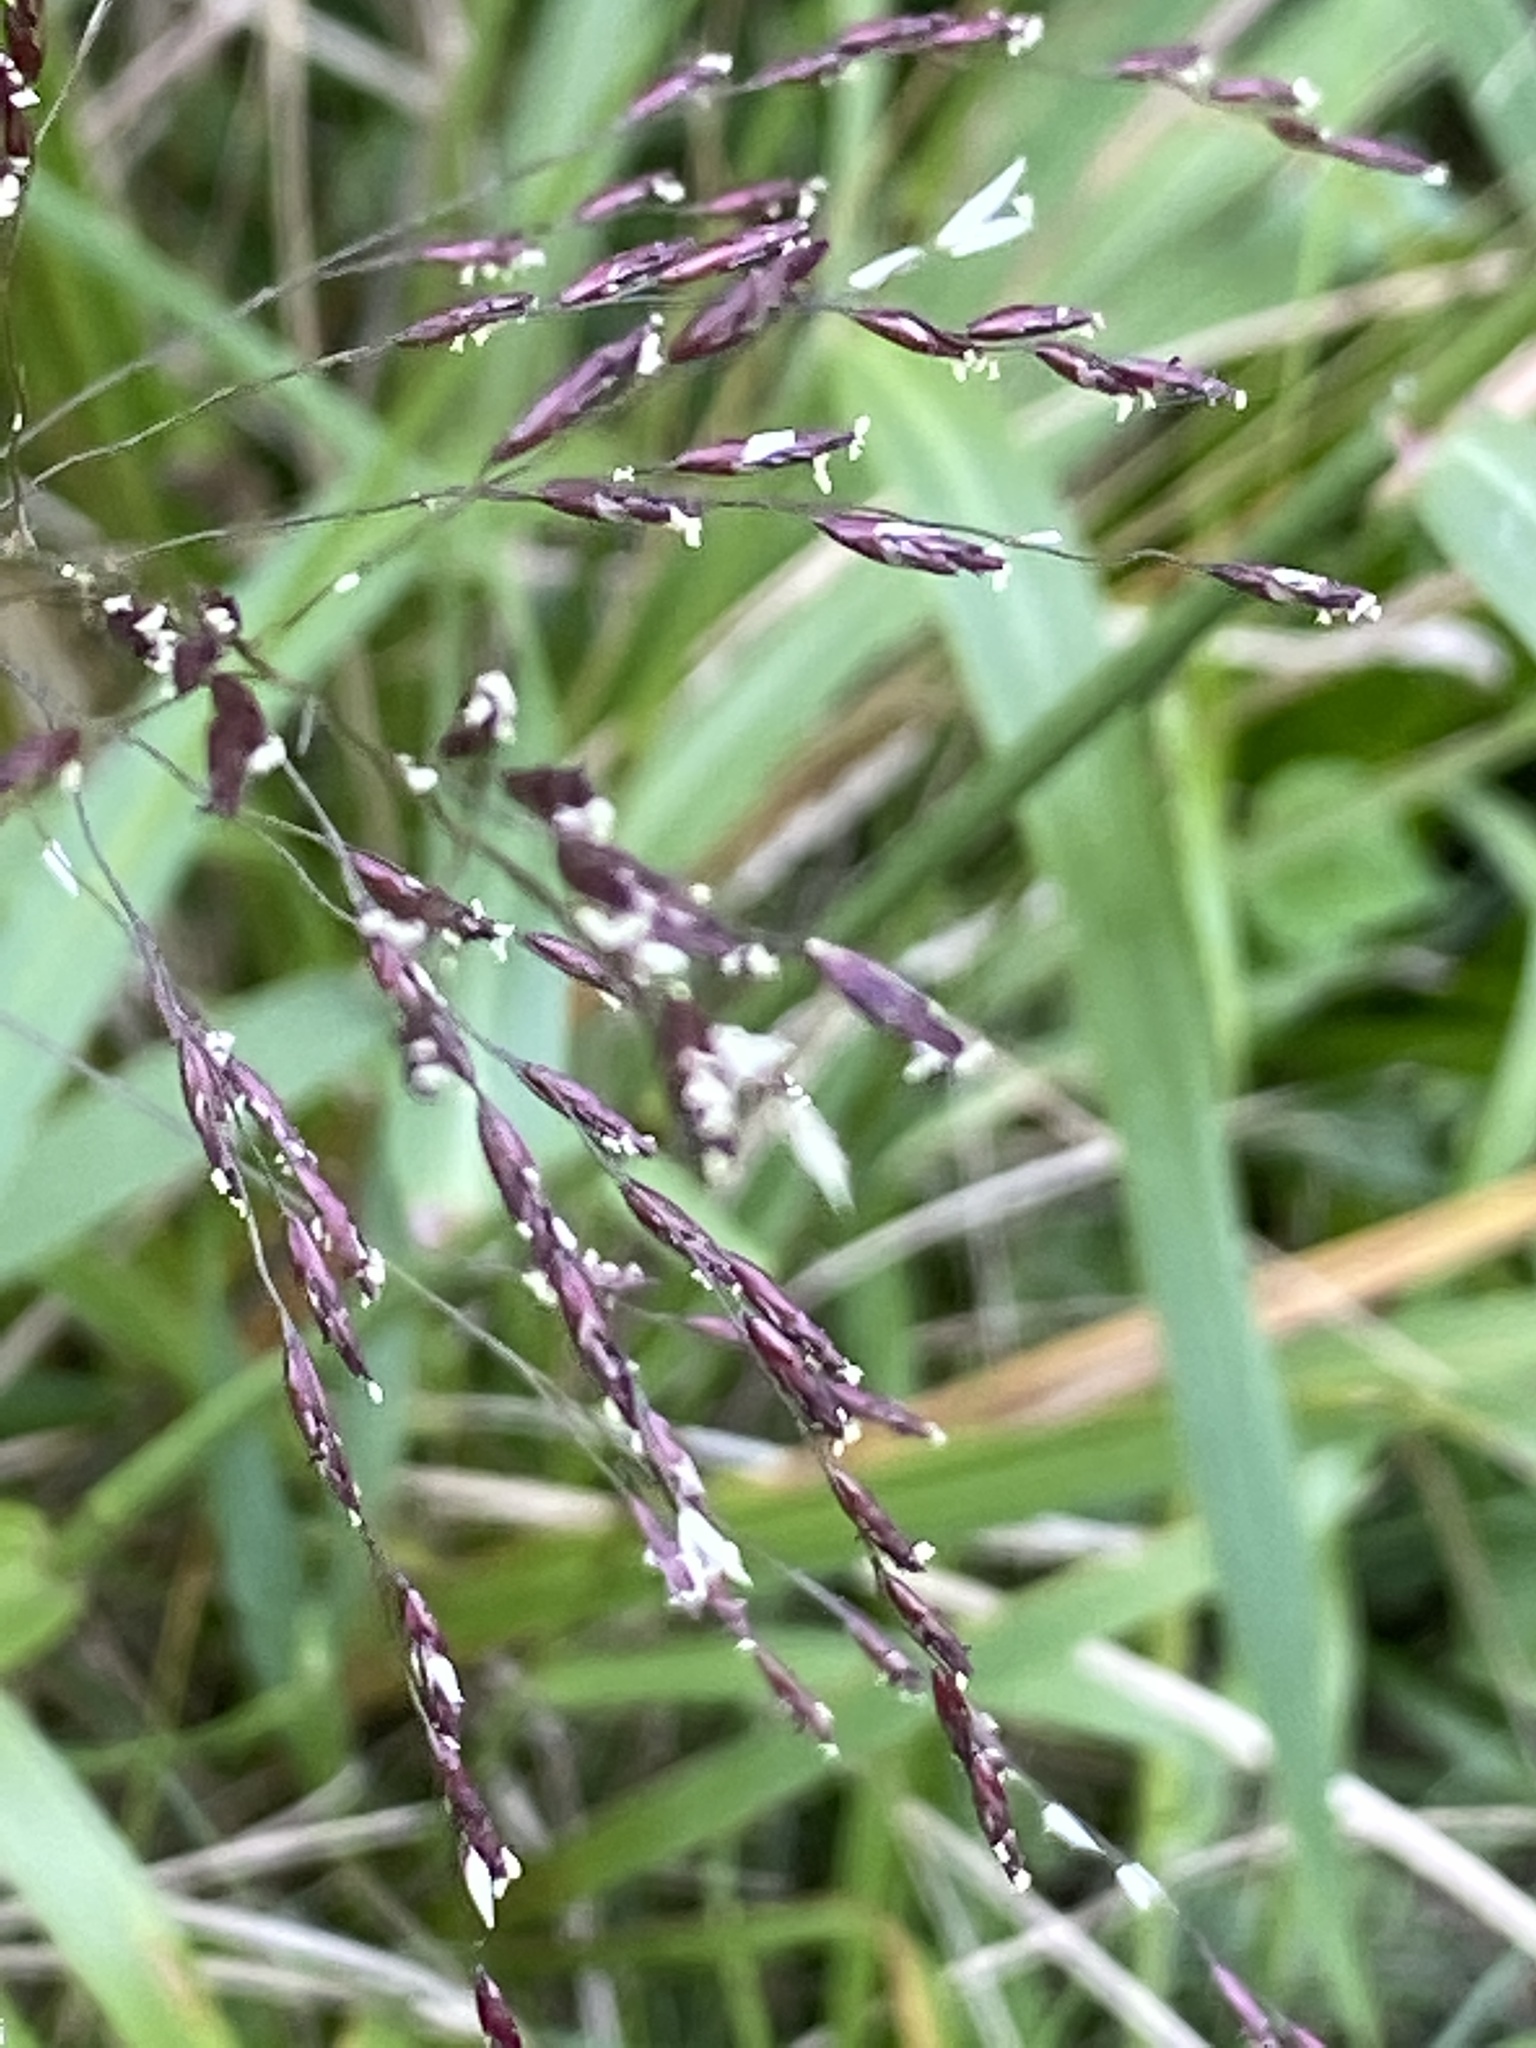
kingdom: Plantae
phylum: Tracheophyta
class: Liliopsida
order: Poales
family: Poaceae
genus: Tridens
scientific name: Tridens flavus
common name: Purpletop
